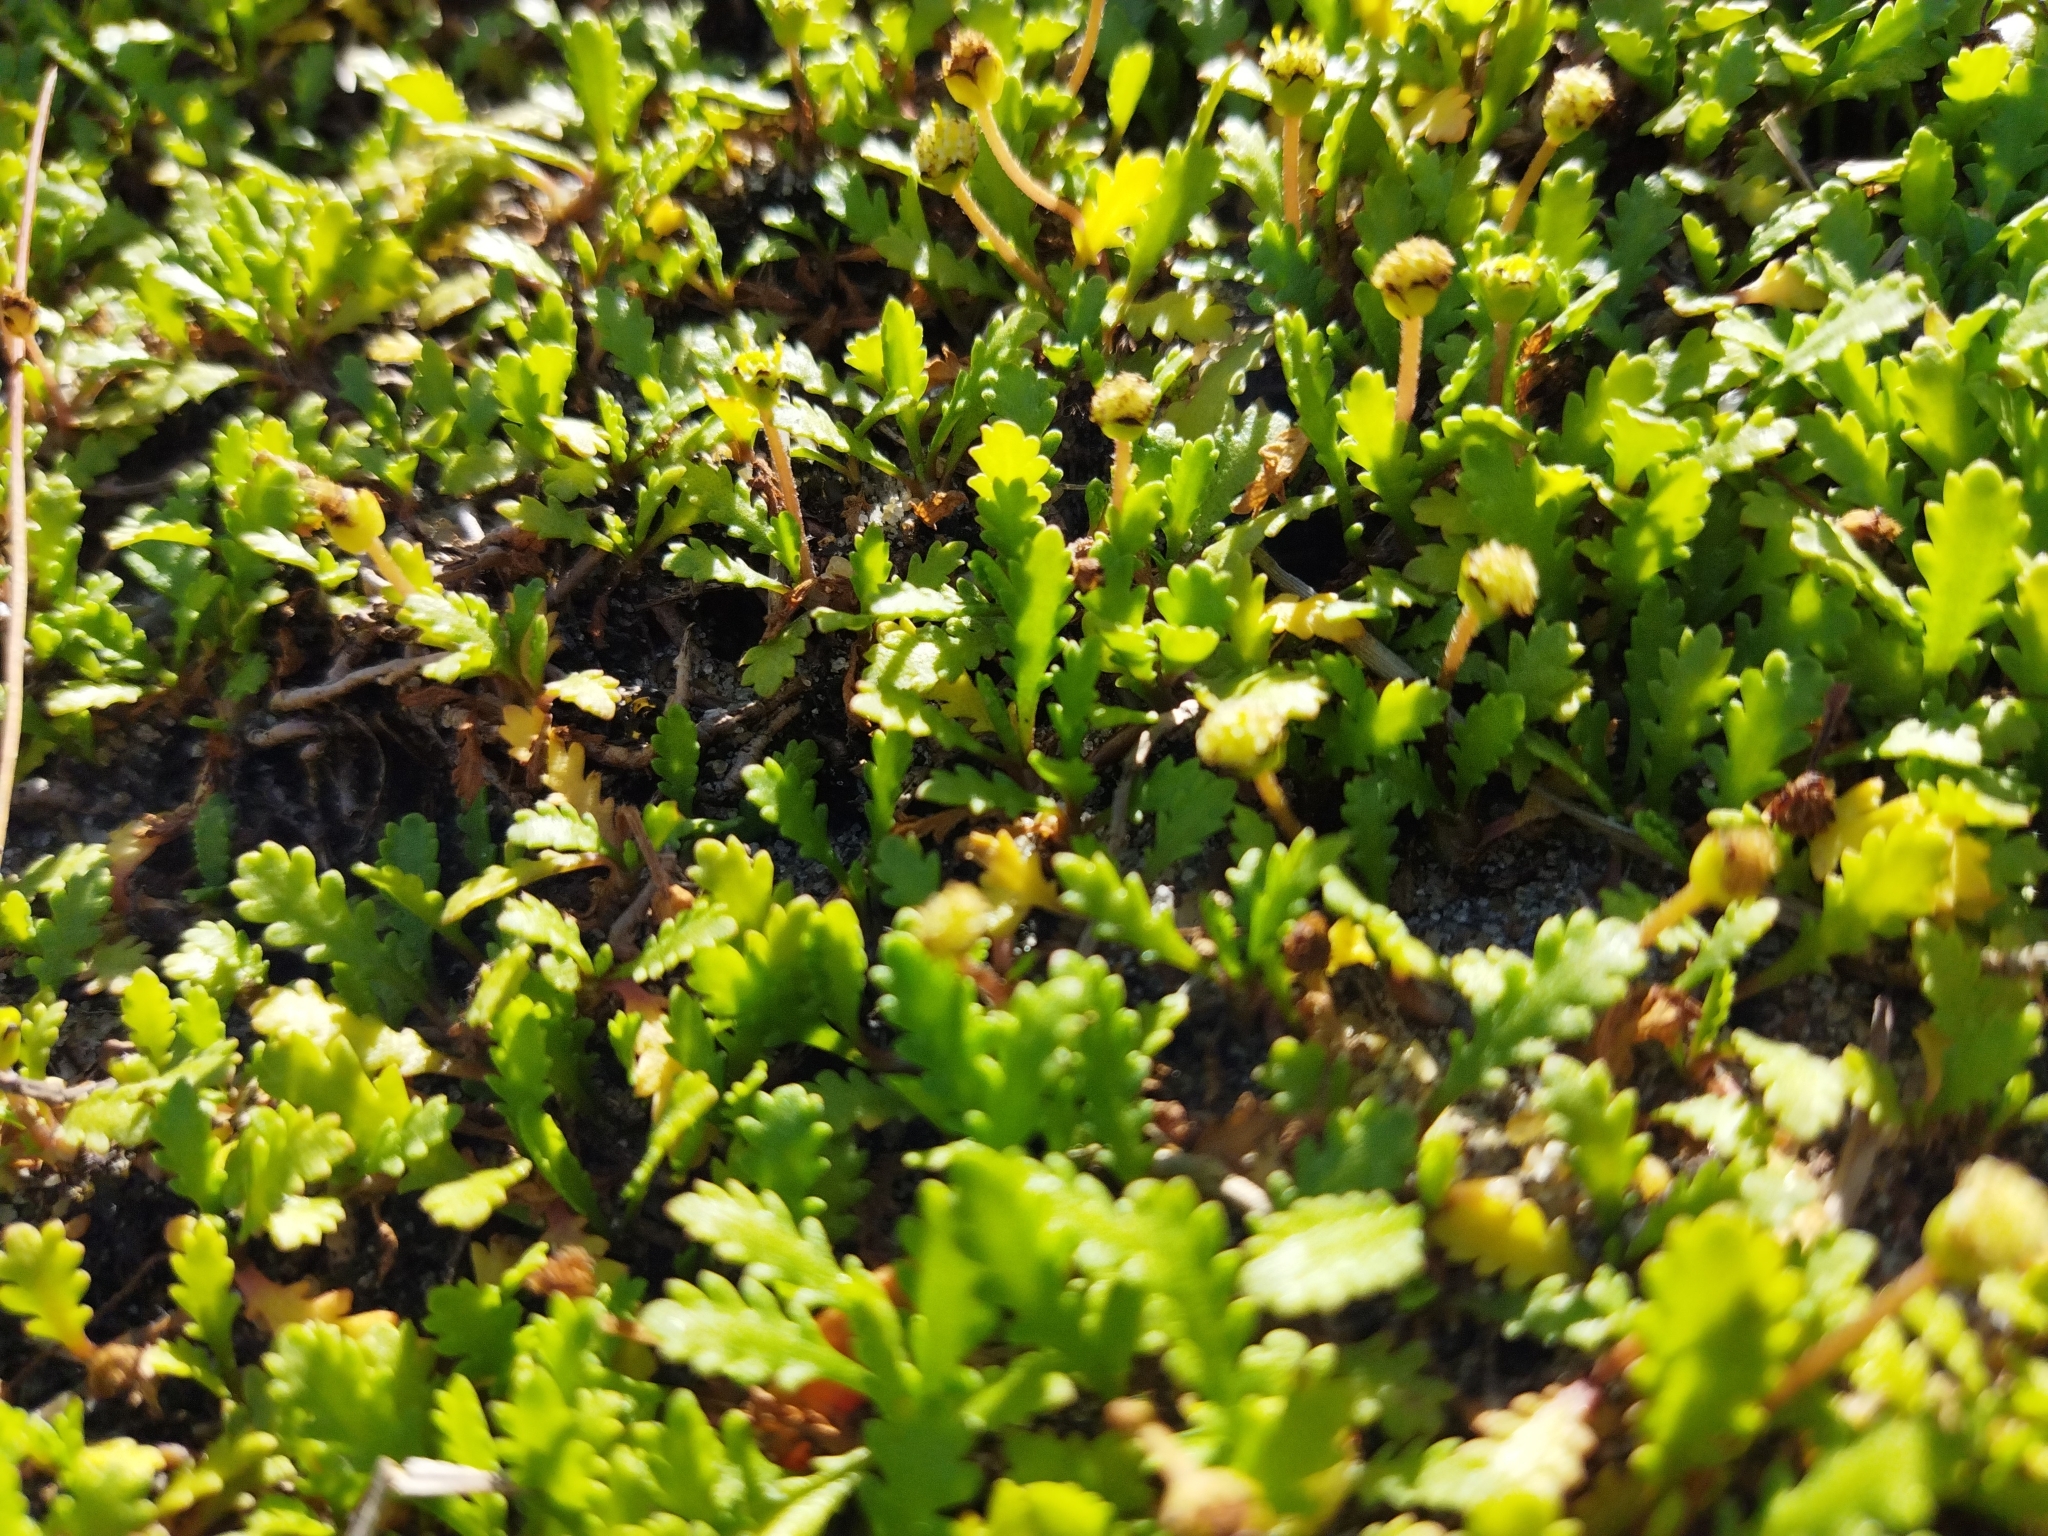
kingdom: Plantae
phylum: Tracheophyta
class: Magnoliopsida
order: Asterales
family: Asteraceae
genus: Leptinella
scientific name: Leptinella dioica
